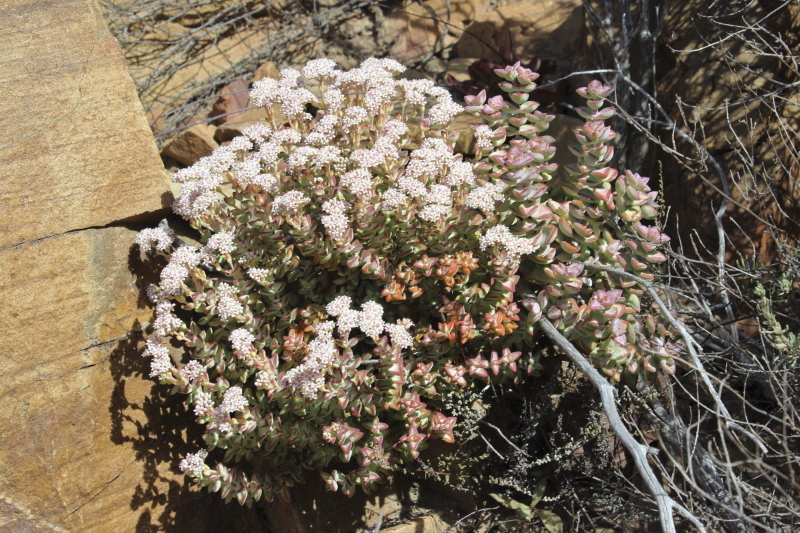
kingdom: Plantae
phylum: Tracheophyta
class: Magnoliopsida
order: Saxifragales
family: Crassulaceae
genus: Crassula
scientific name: Crassula rupestris
